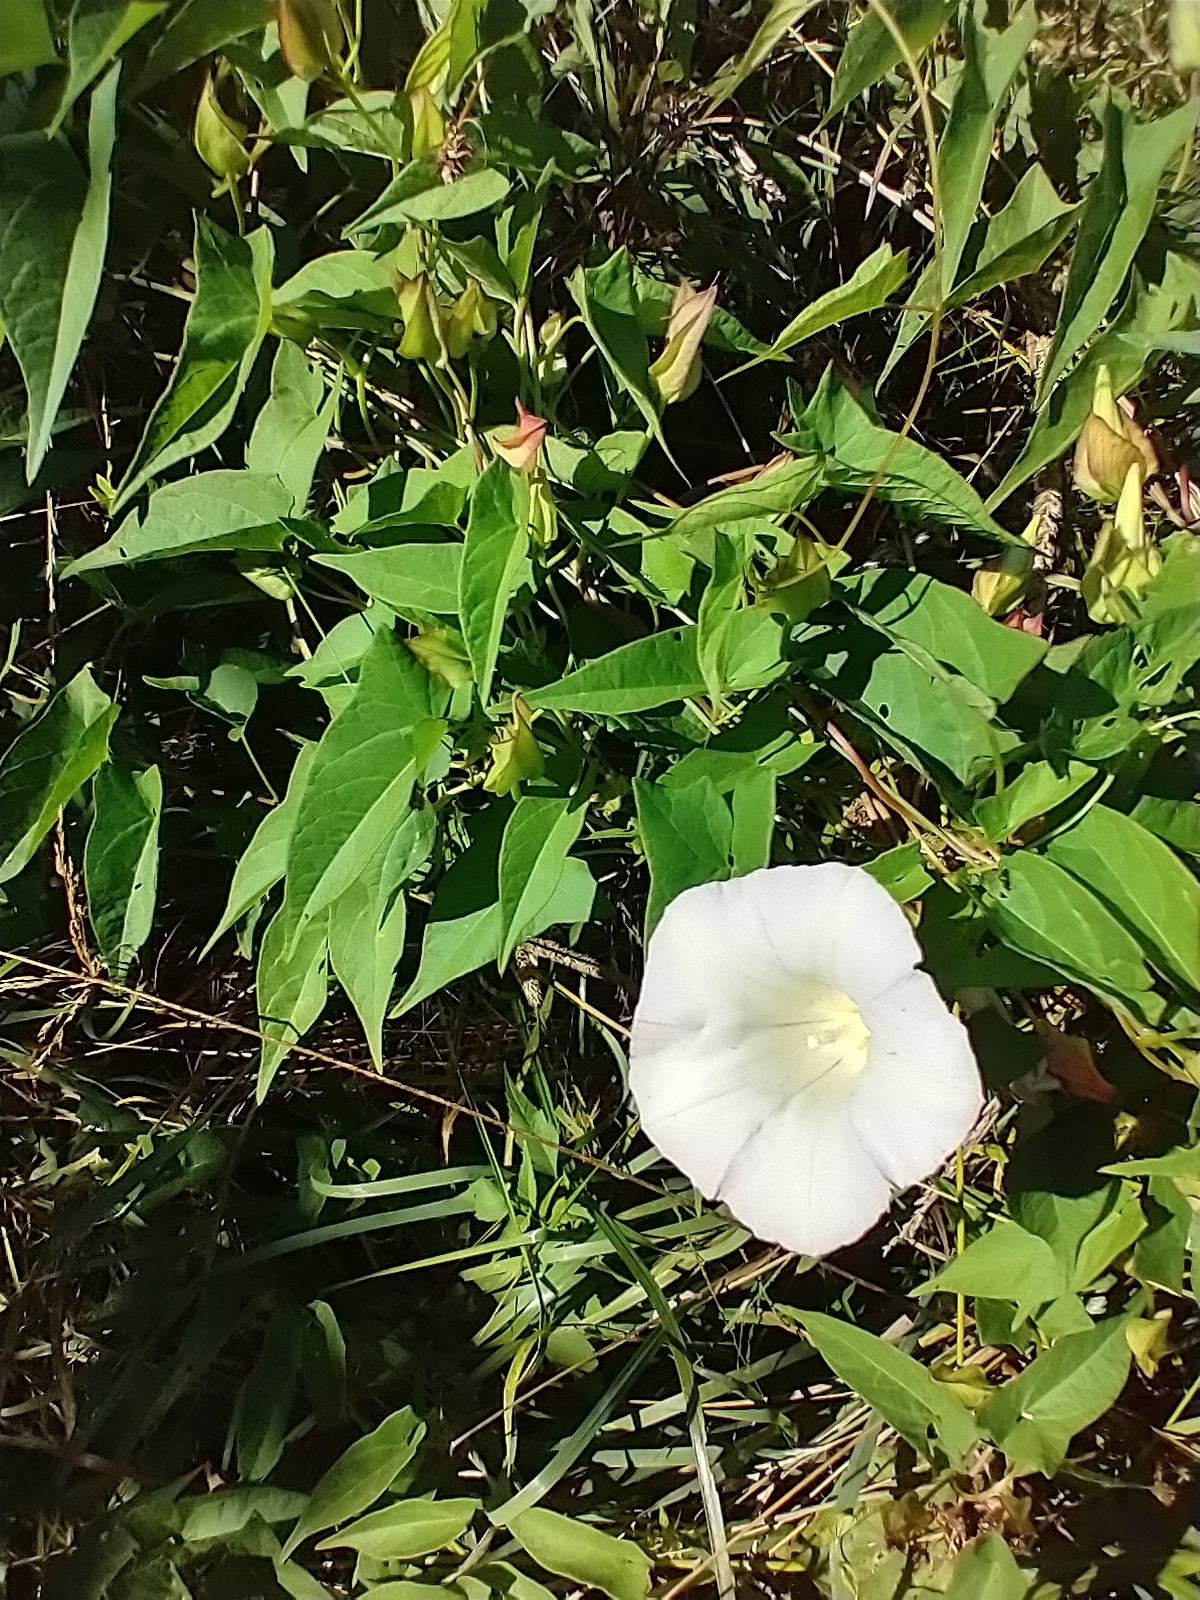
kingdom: Plantae
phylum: Tracheophyta
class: Magnoliopsida
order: Solanales
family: Convolvulaceae
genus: Calystegia
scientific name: Calystegia sepium
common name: Hedge bindweed
